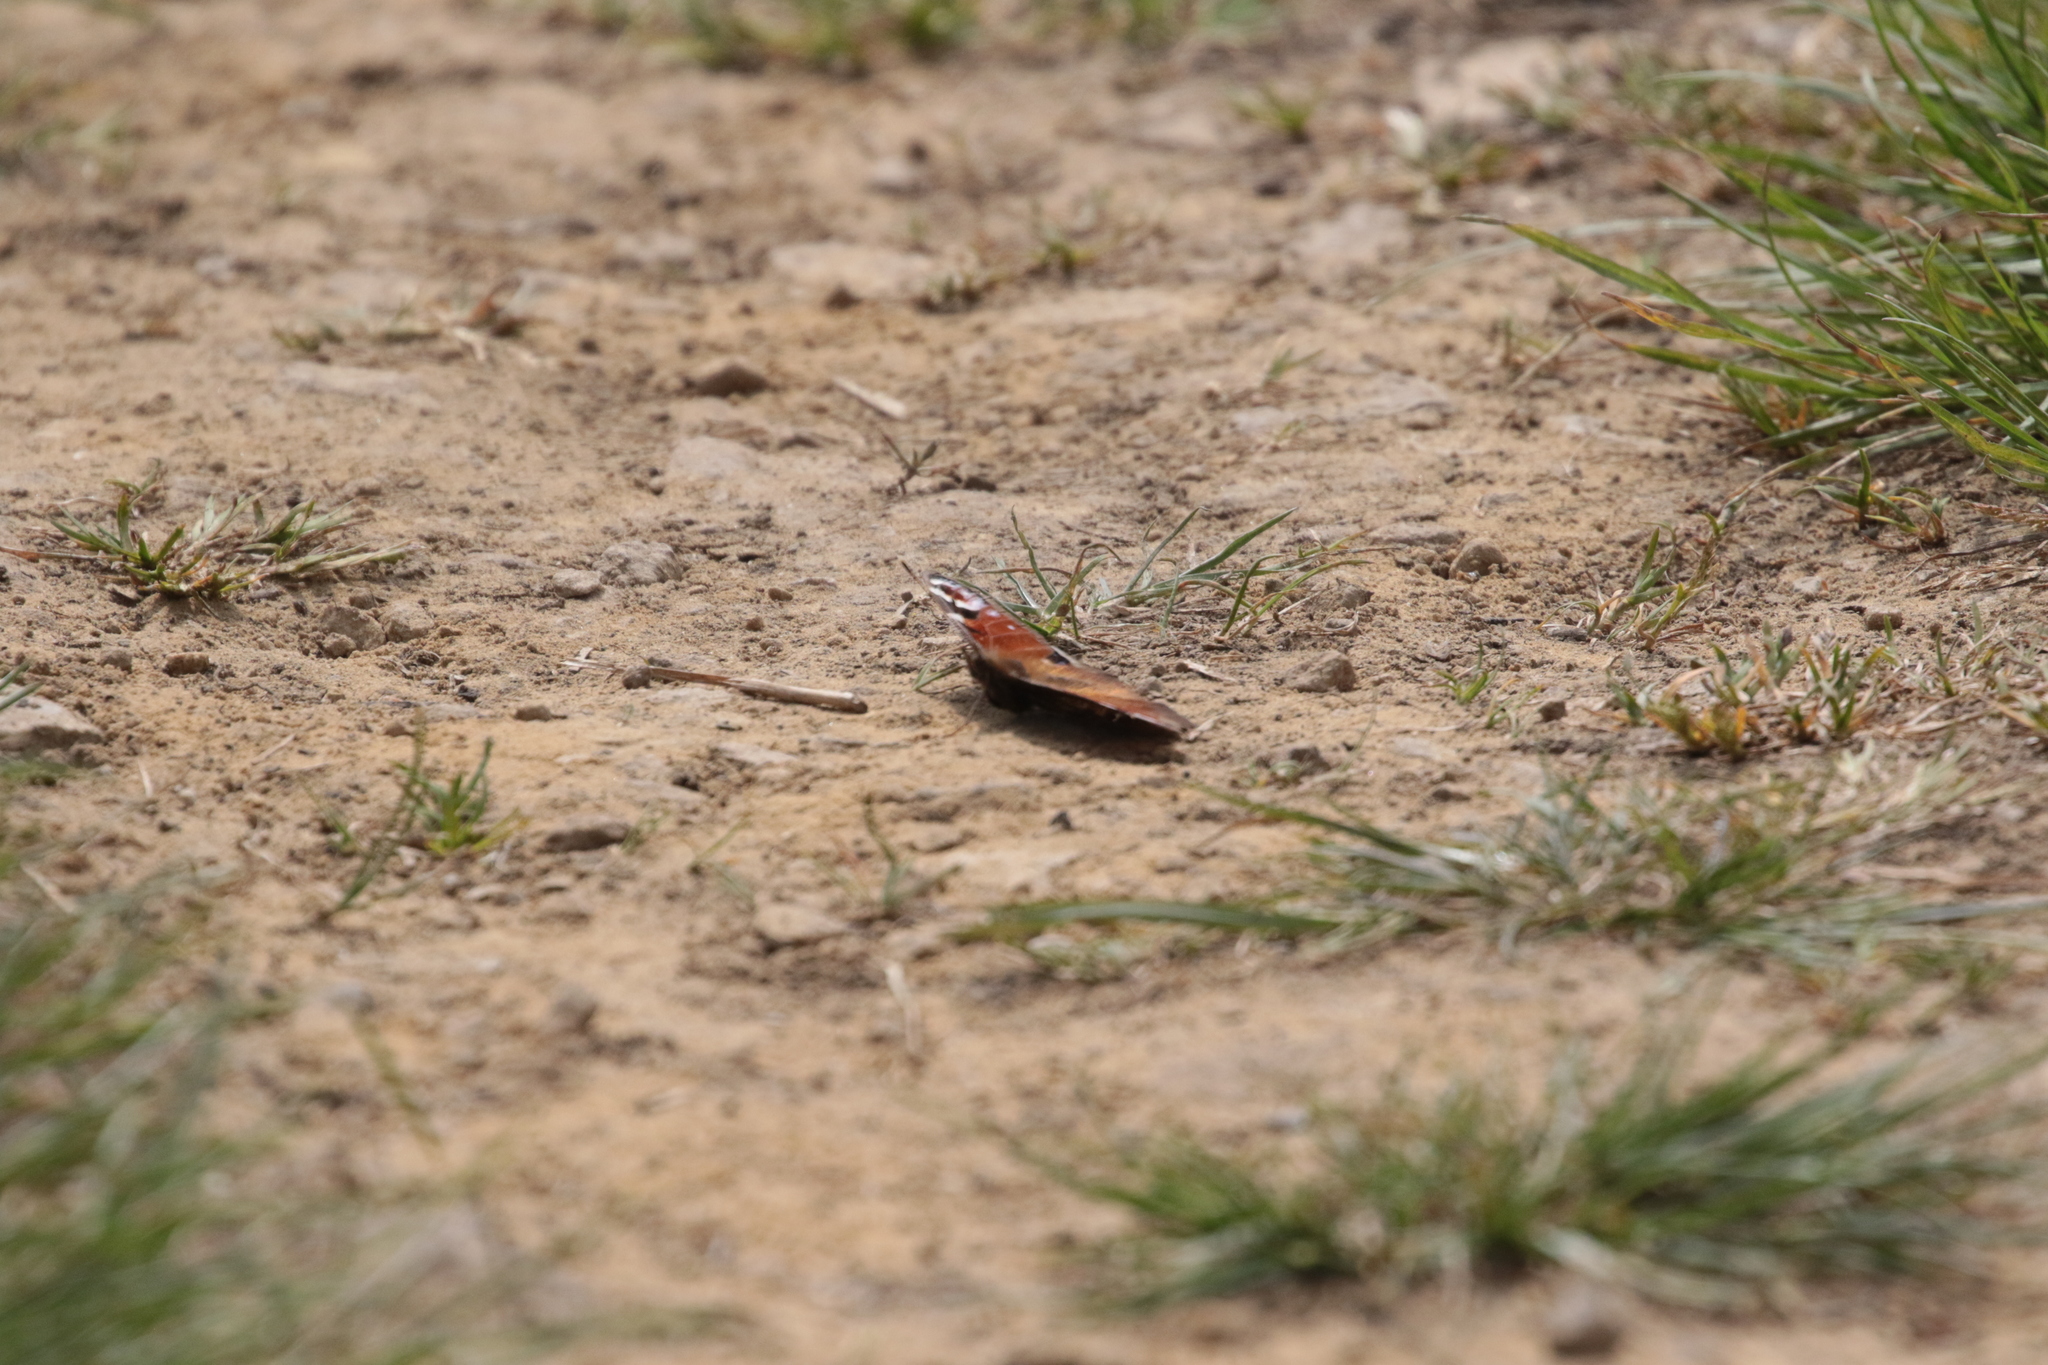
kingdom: Animalia
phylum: Arthropoda
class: Insecta
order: Lepidoptera
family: Nymphalidae
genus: Aglais
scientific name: Aglais io
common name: Peacock
